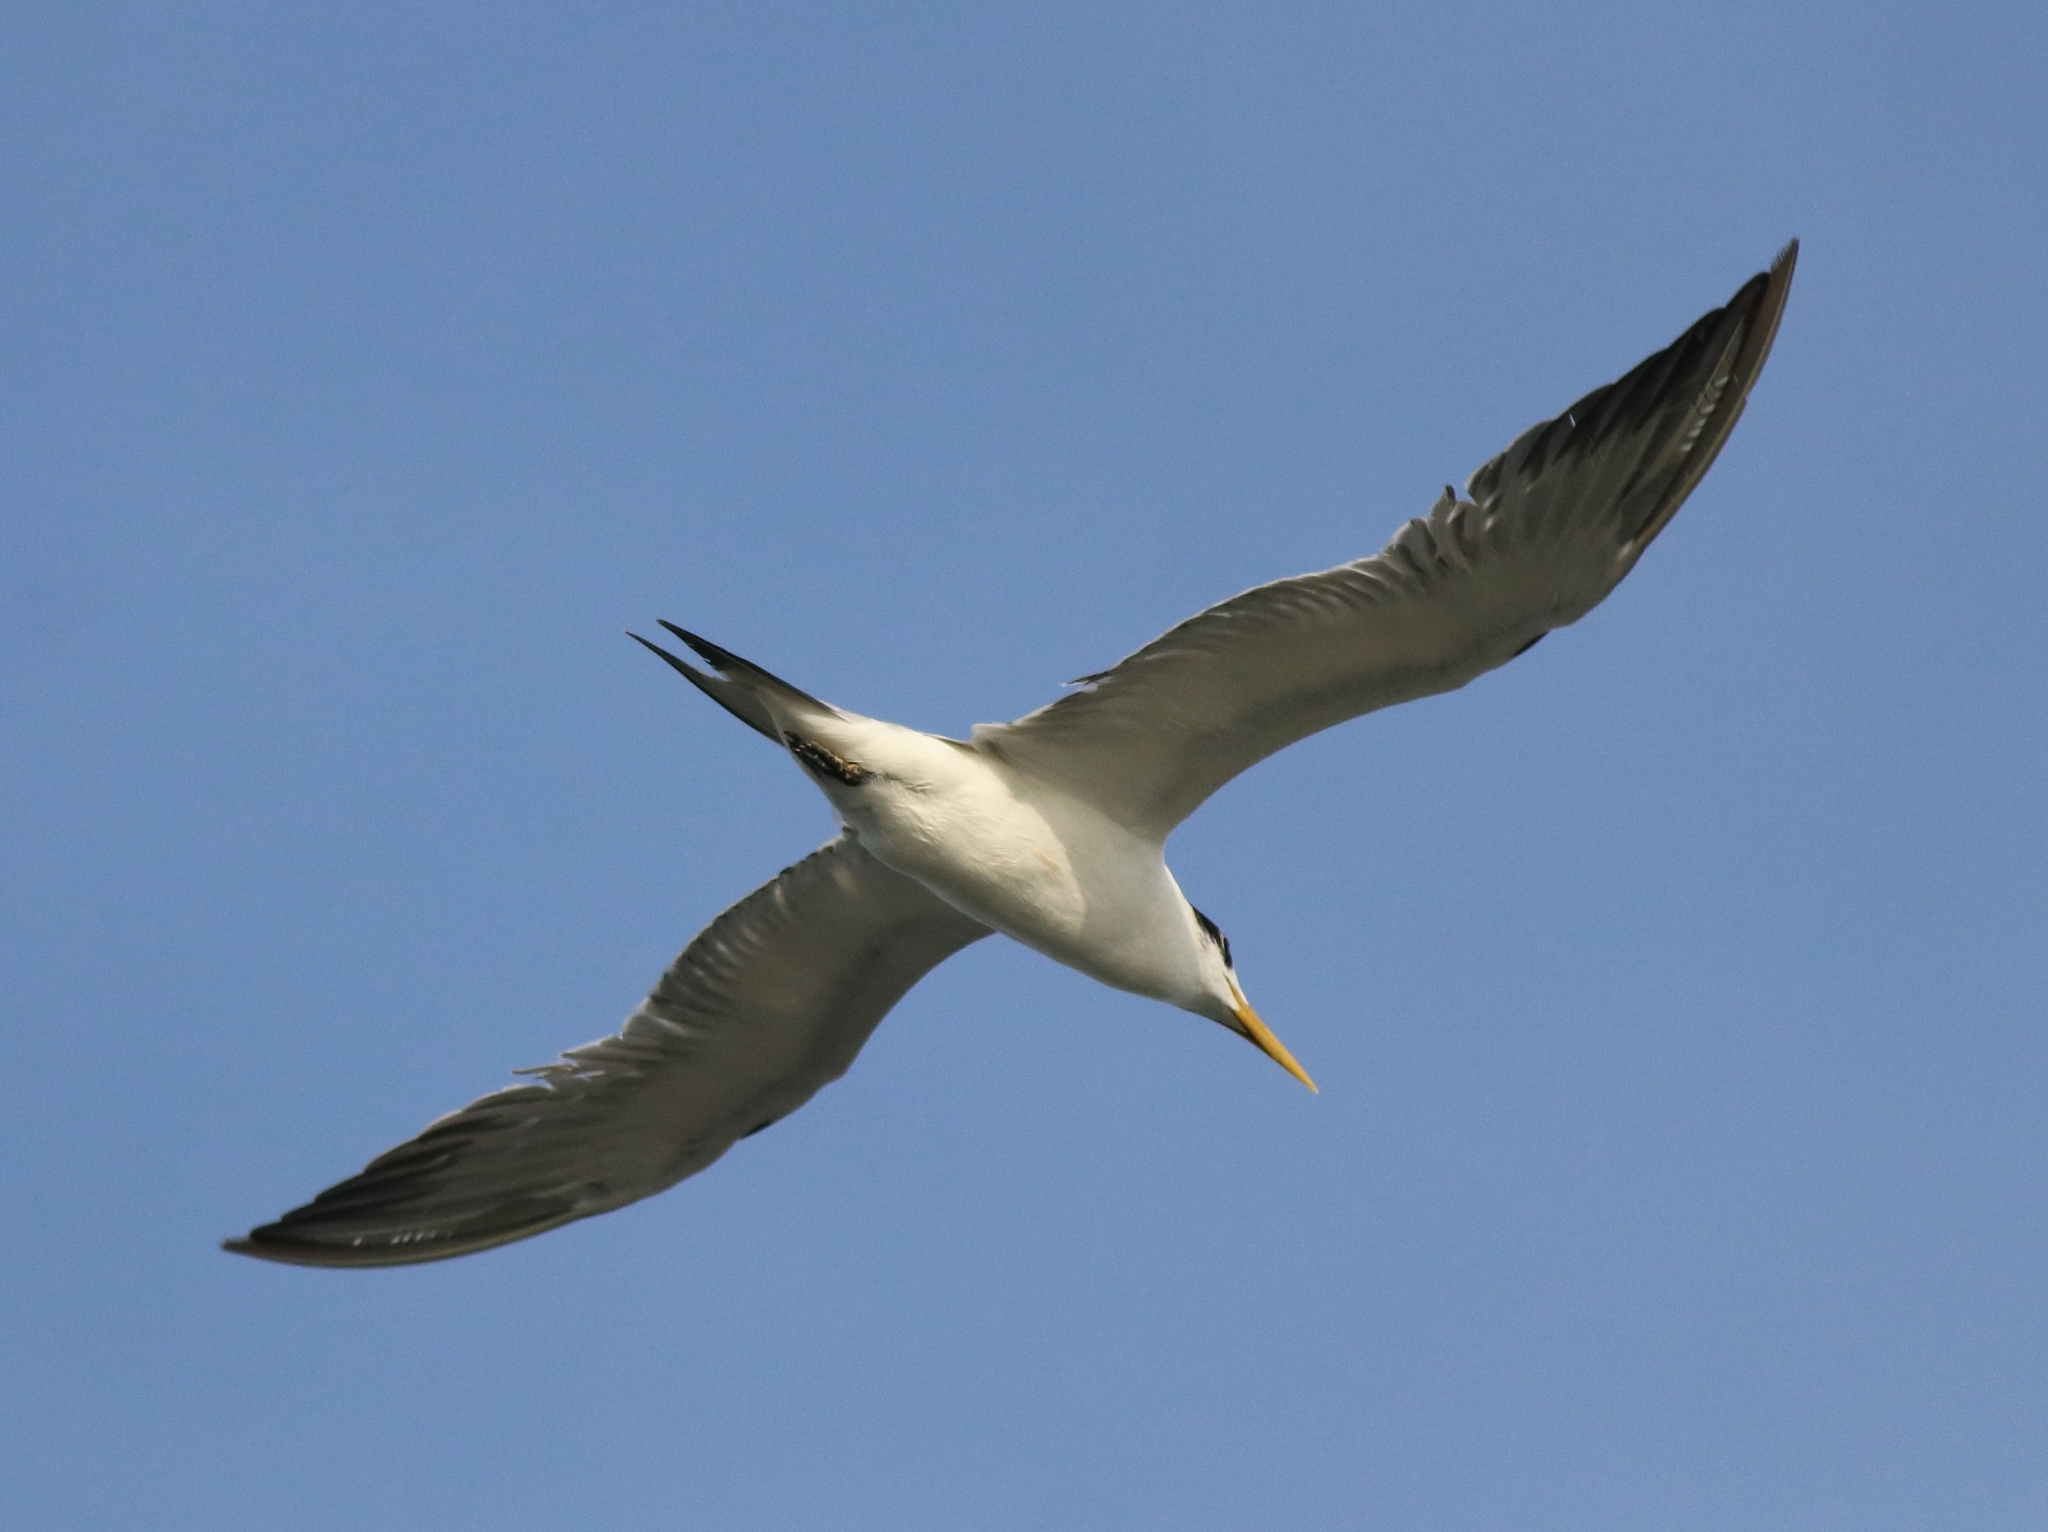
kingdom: Animalia
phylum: Chordata
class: Aves
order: Charadriiformes
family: Laridae
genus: Thalasseus
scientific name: Thalasseus bergii
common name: Greater crested tern
